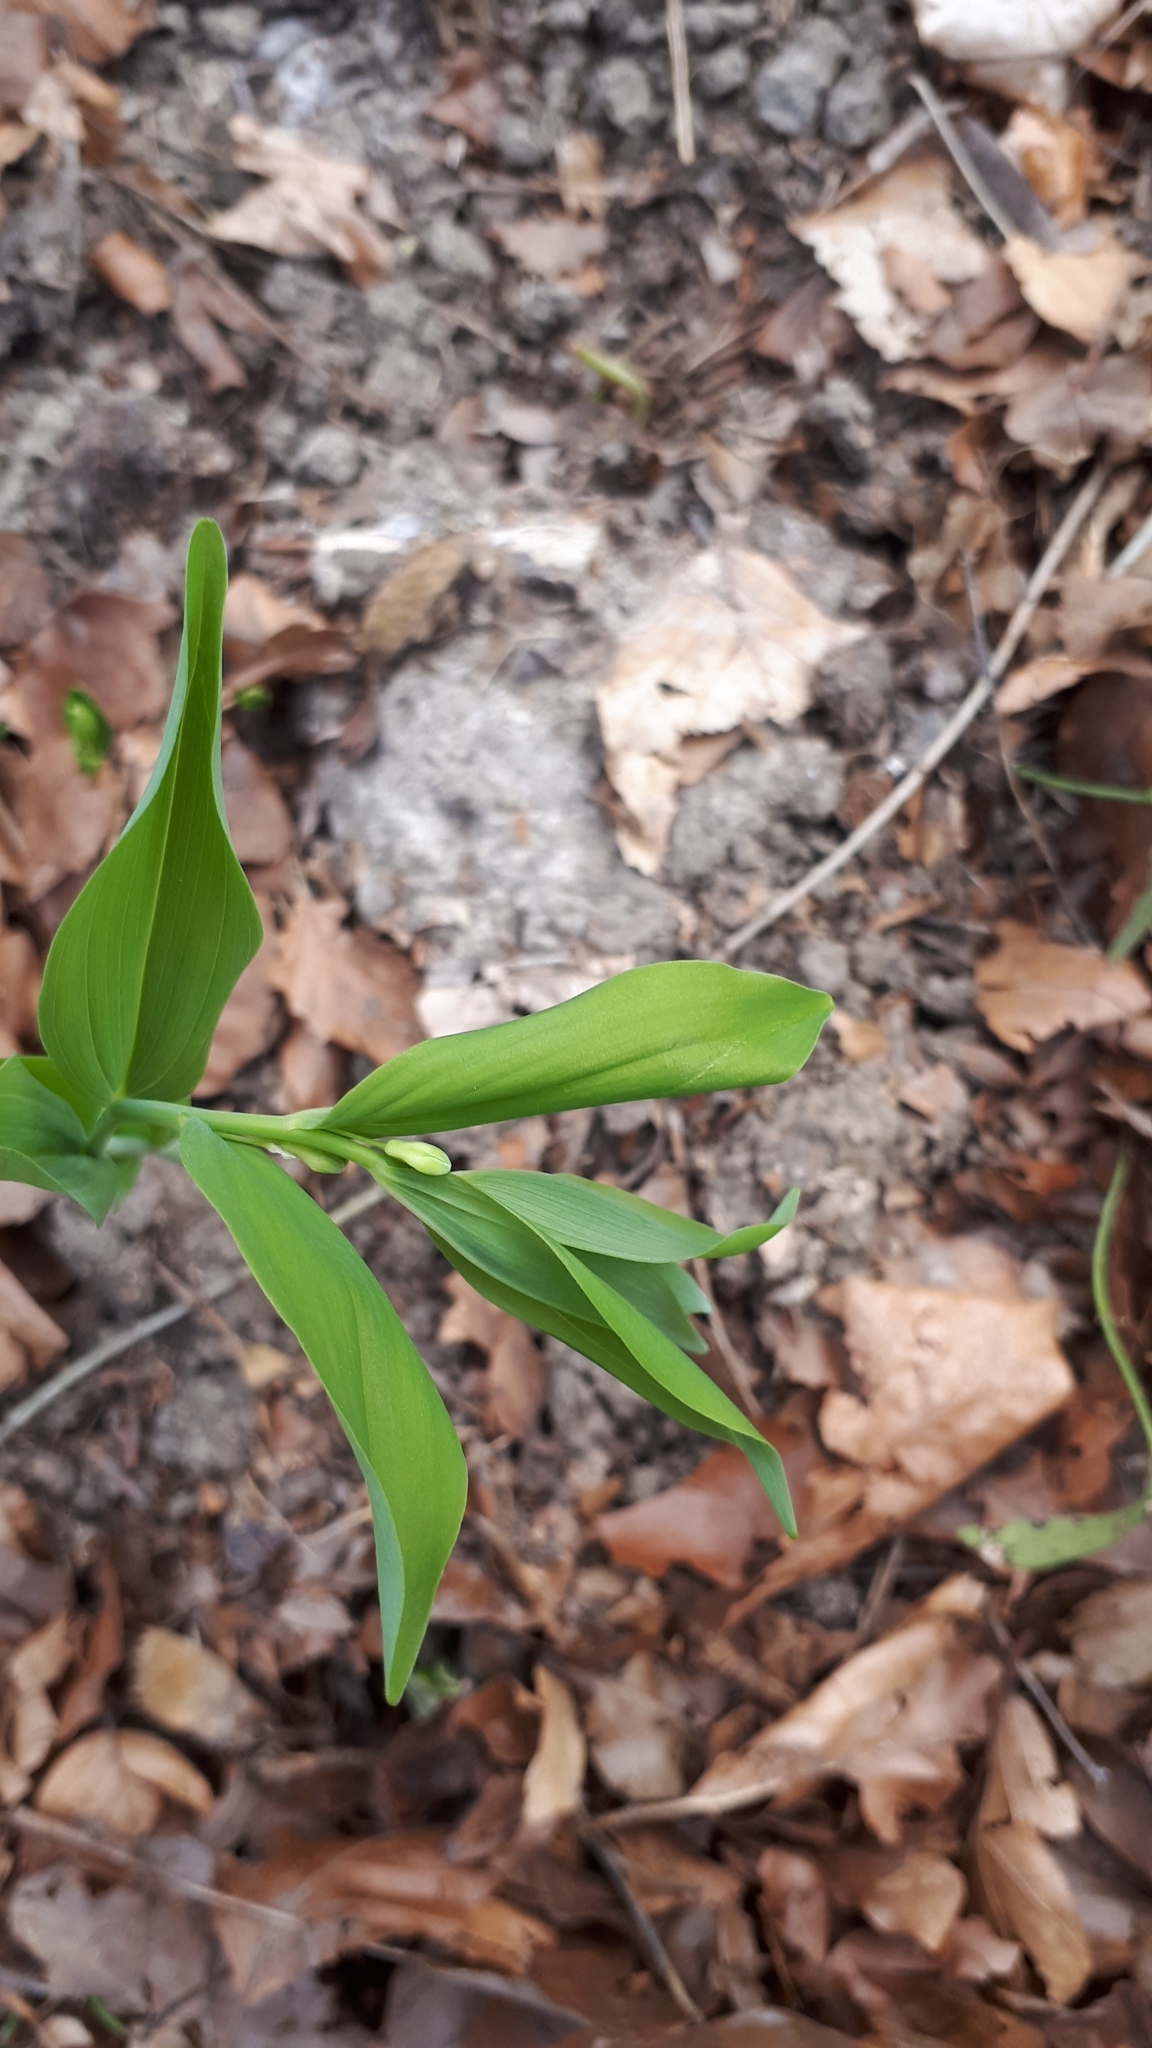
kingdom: Plantae
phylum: Tracheophyta
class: Liliopsida
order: Asparagales
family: Asparagaceae
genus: Polygonatum
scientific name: Polygonatum multiflorum
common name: Solomon's-seal
